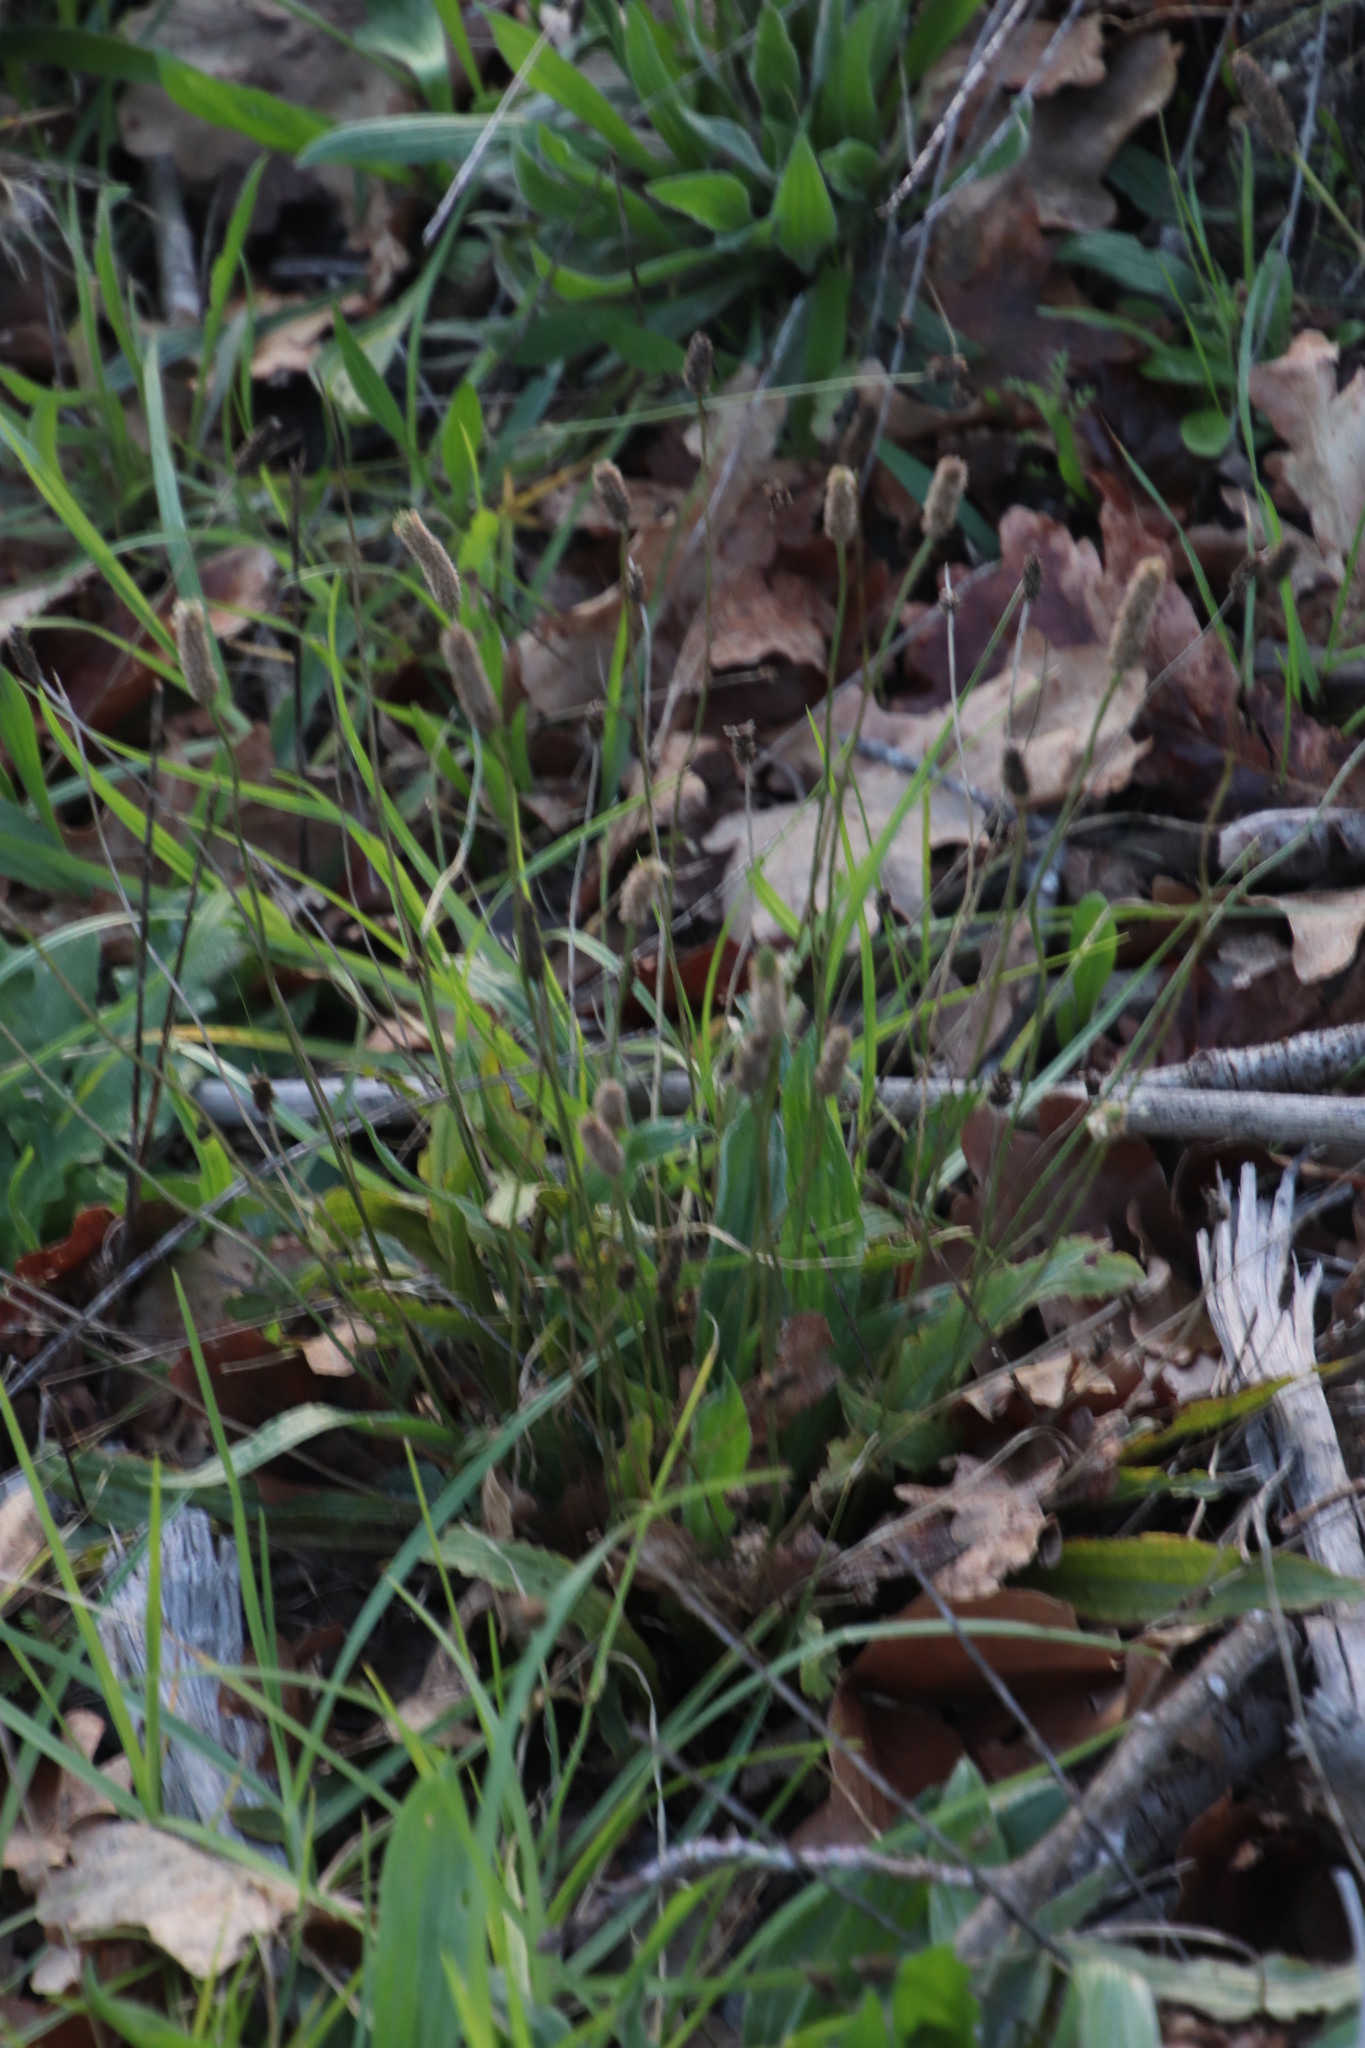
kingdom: Plantae
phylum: Tracheophyta
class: Magnoliopsida
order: Lamiales
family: Plantaginaceae
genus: Plantago
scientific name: Plantago lanceolata
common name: Ribwort plantain
